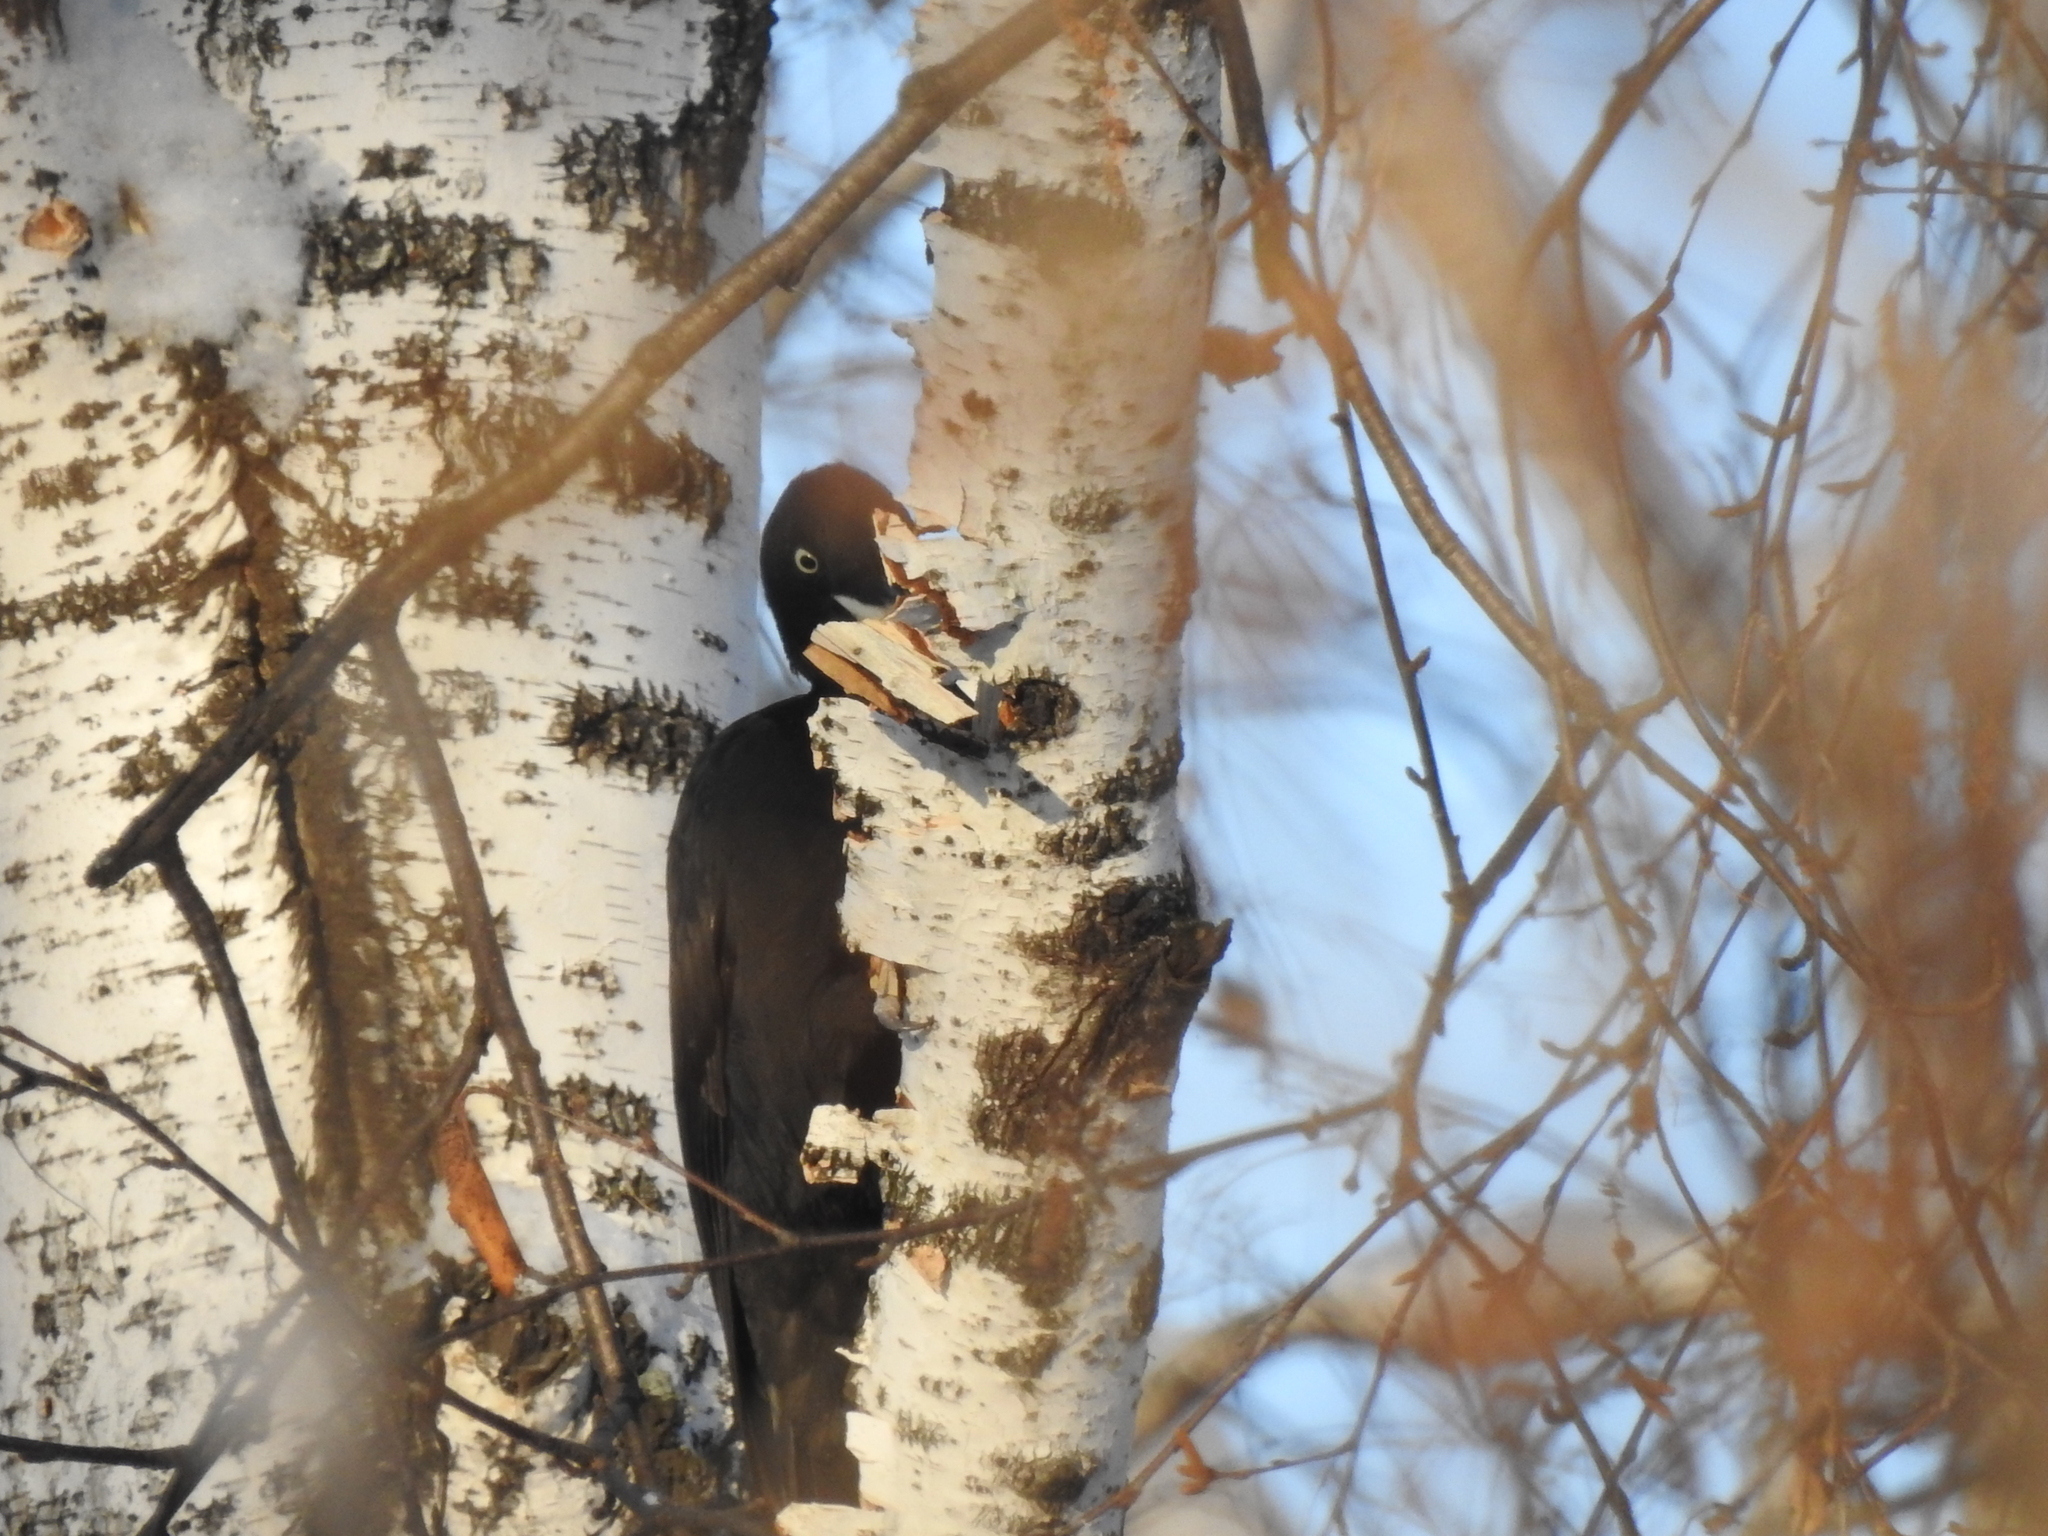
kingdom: Animalia
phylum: Chordata
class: Aves
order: Piciformes
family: Picidae
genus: Dryocopus
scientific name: Dryocopus martius
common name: Black woodpecker
